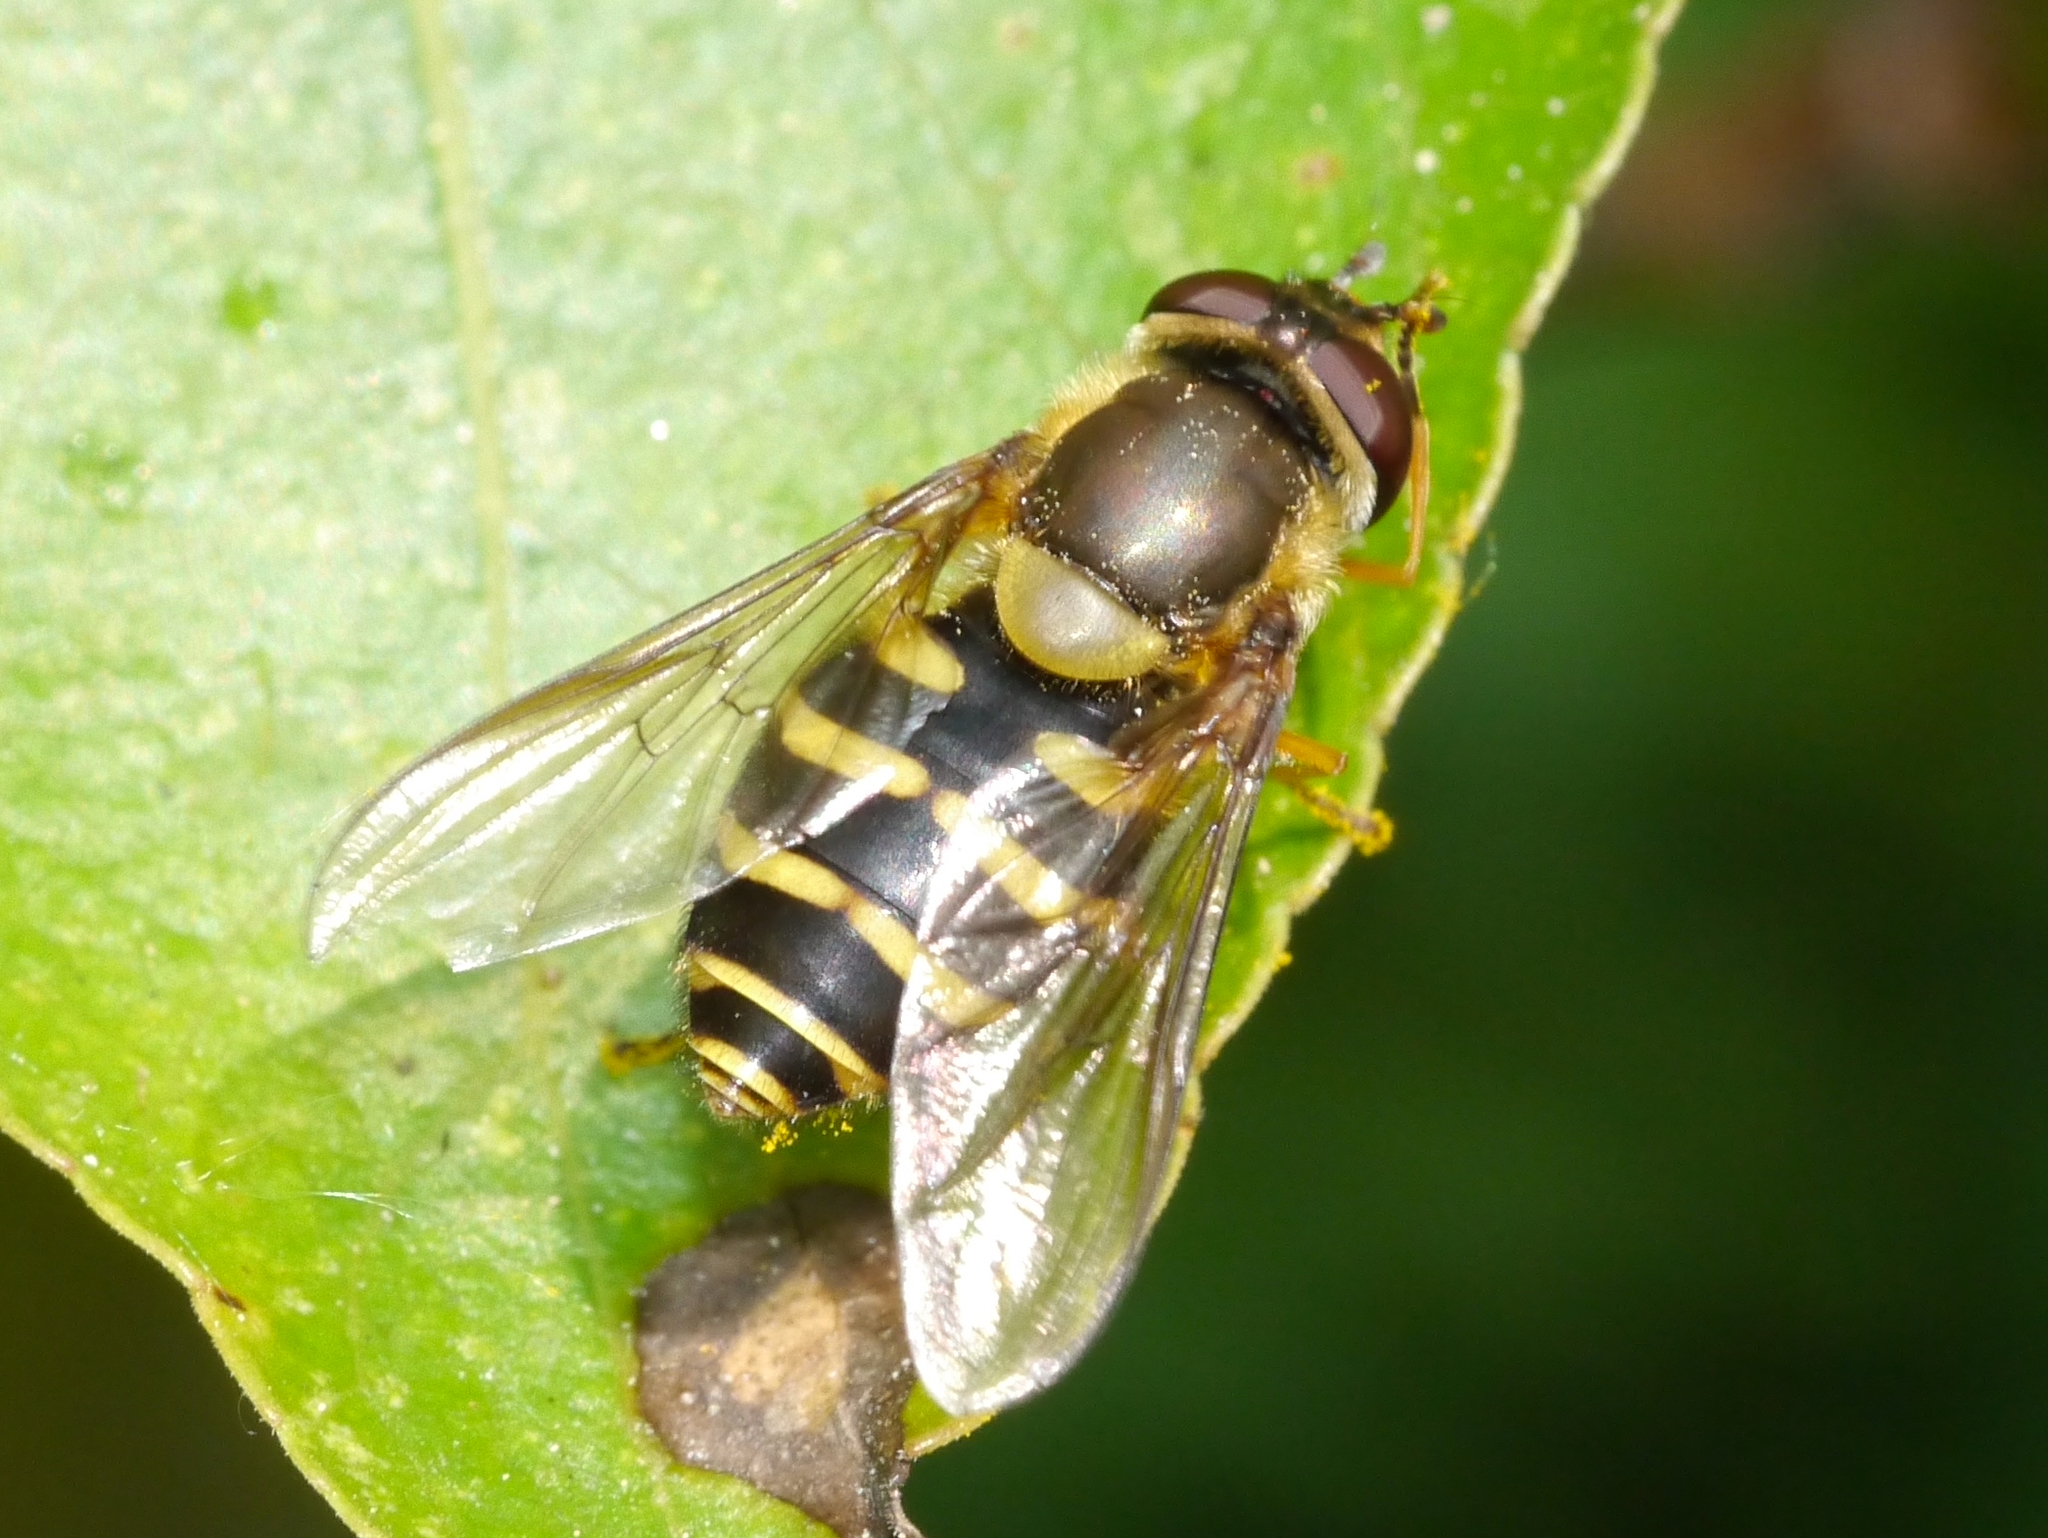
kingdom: Animalia
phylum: Arthropoda
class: Insecta
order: Diptera
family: Syrphidae
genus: Syrphus
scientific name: Syrphus ribesii
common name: Common flower fly
